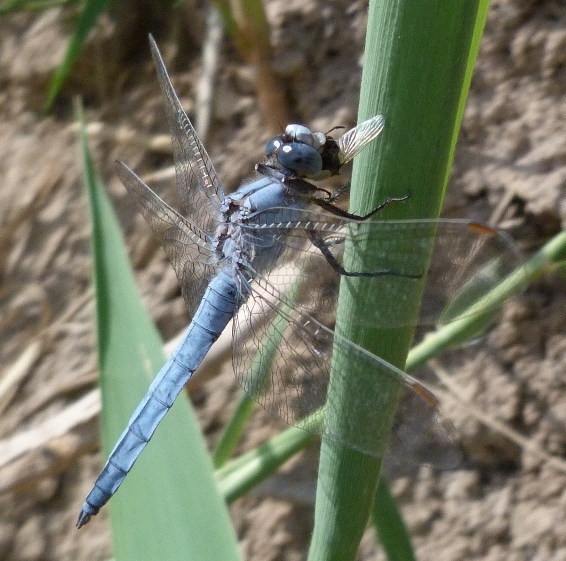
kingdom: Animalia
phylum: Arthropoda
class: Insecta
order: Odonata
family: Libellulidae
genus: Orthetrum
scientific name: Orthetrum brunneum
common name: Southern skimmer
